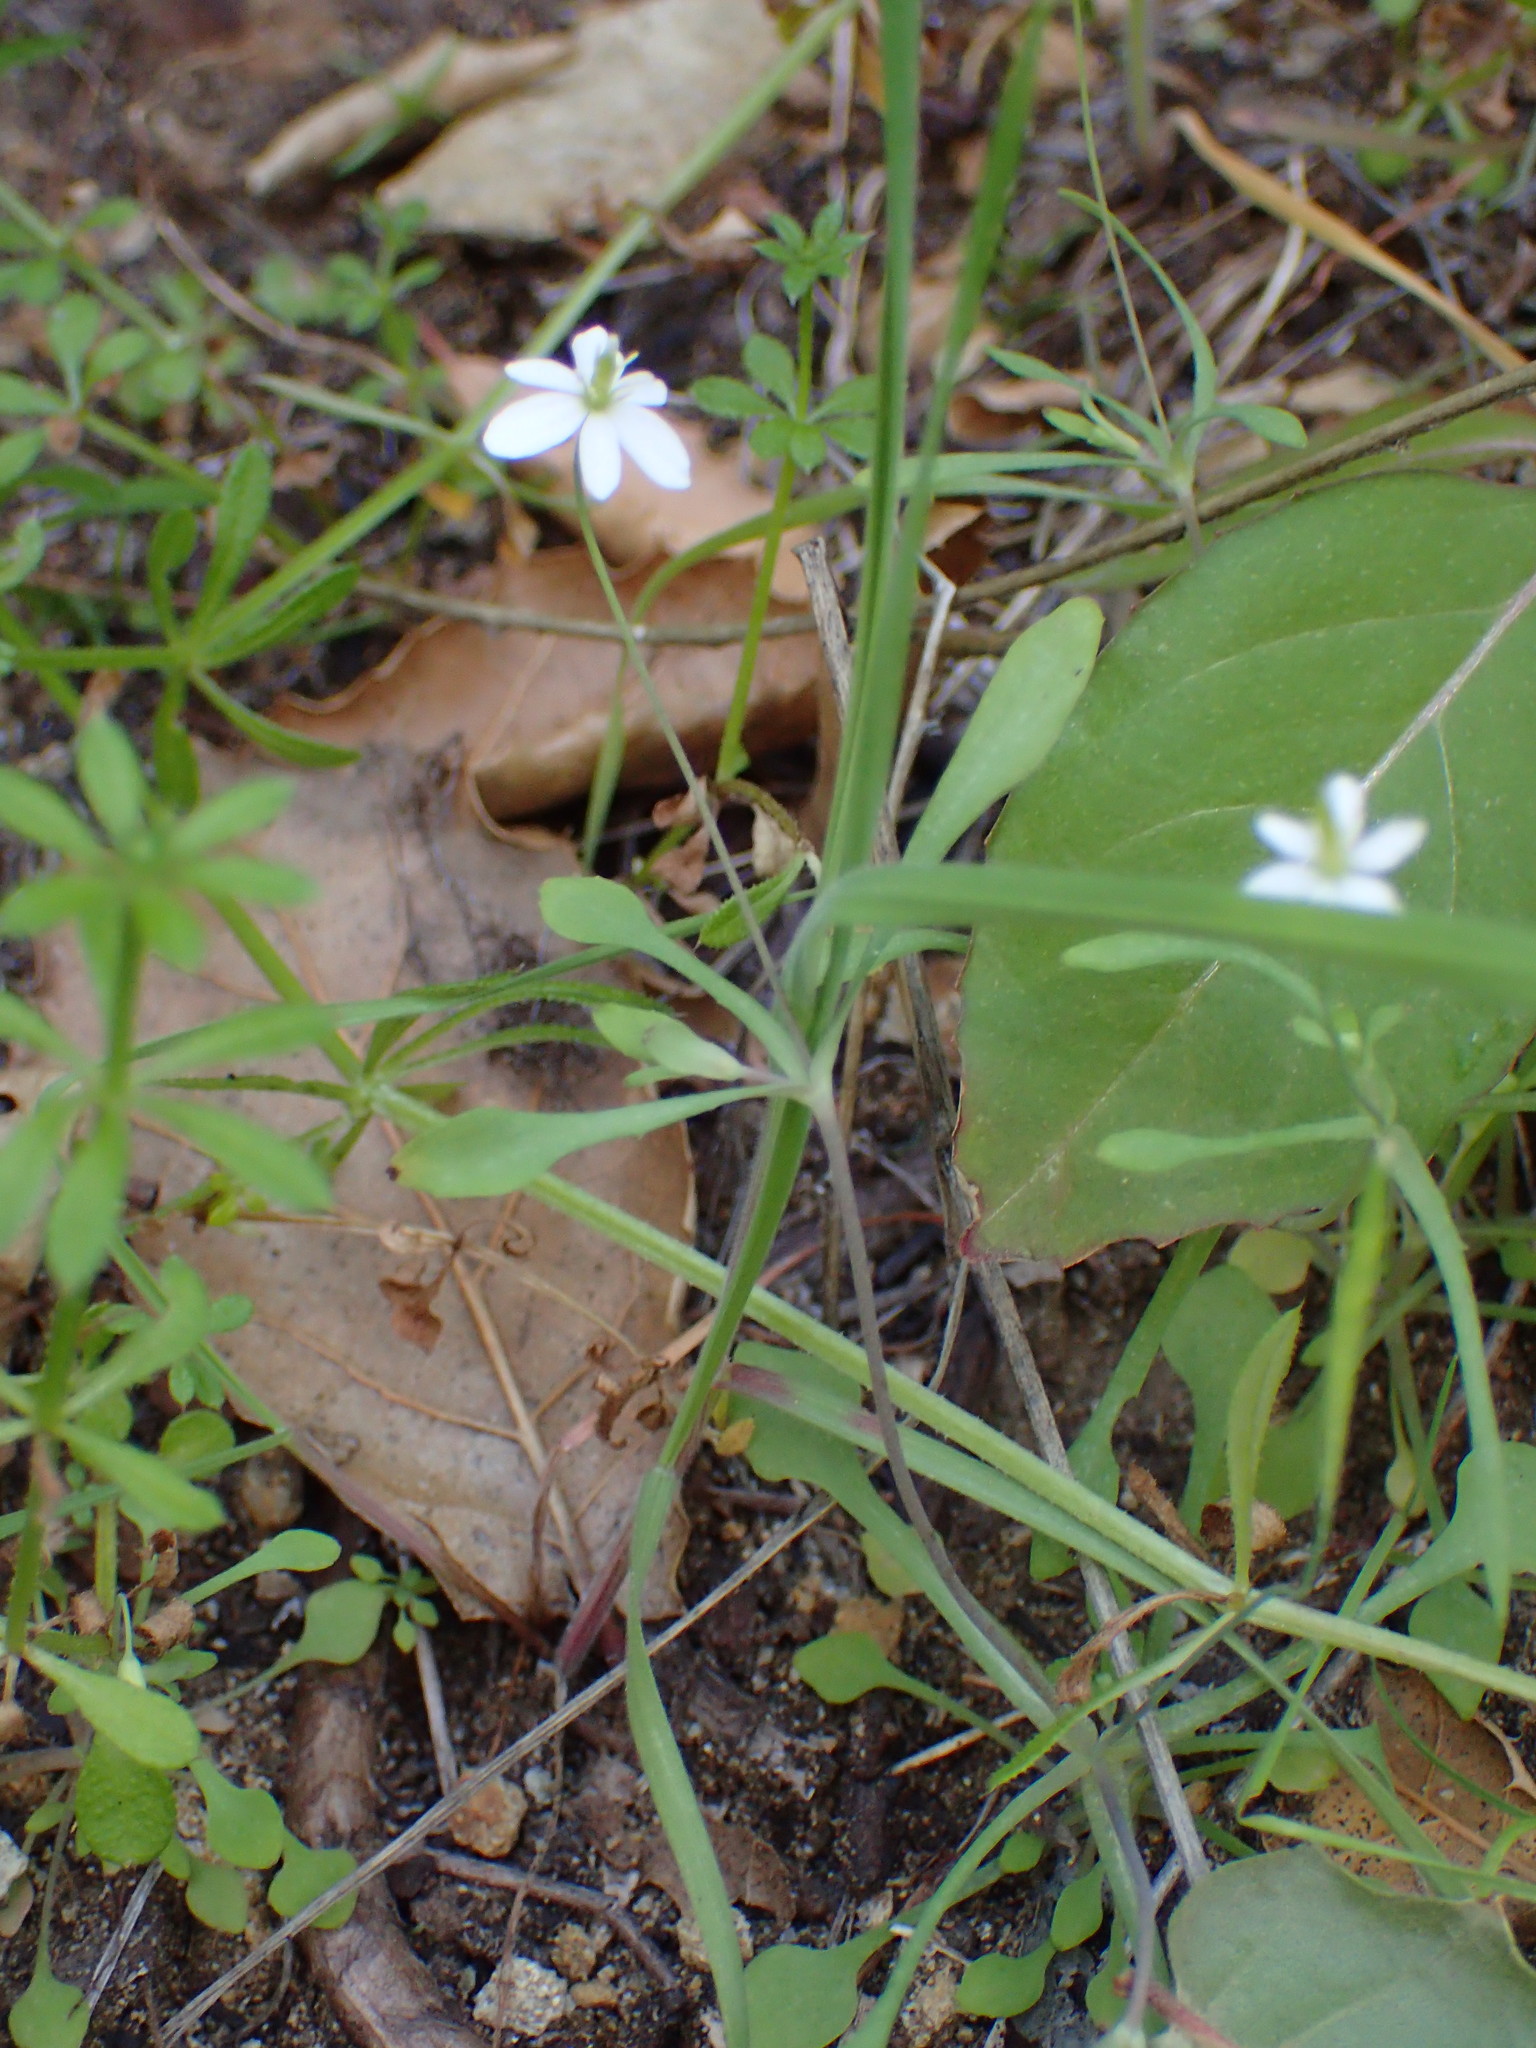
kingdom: Plantae
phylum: Tracheophyta
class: Magnoliopsida
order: Ranunculales
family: Papaveraceae
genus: Meconella
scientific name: Meconella denticulata
